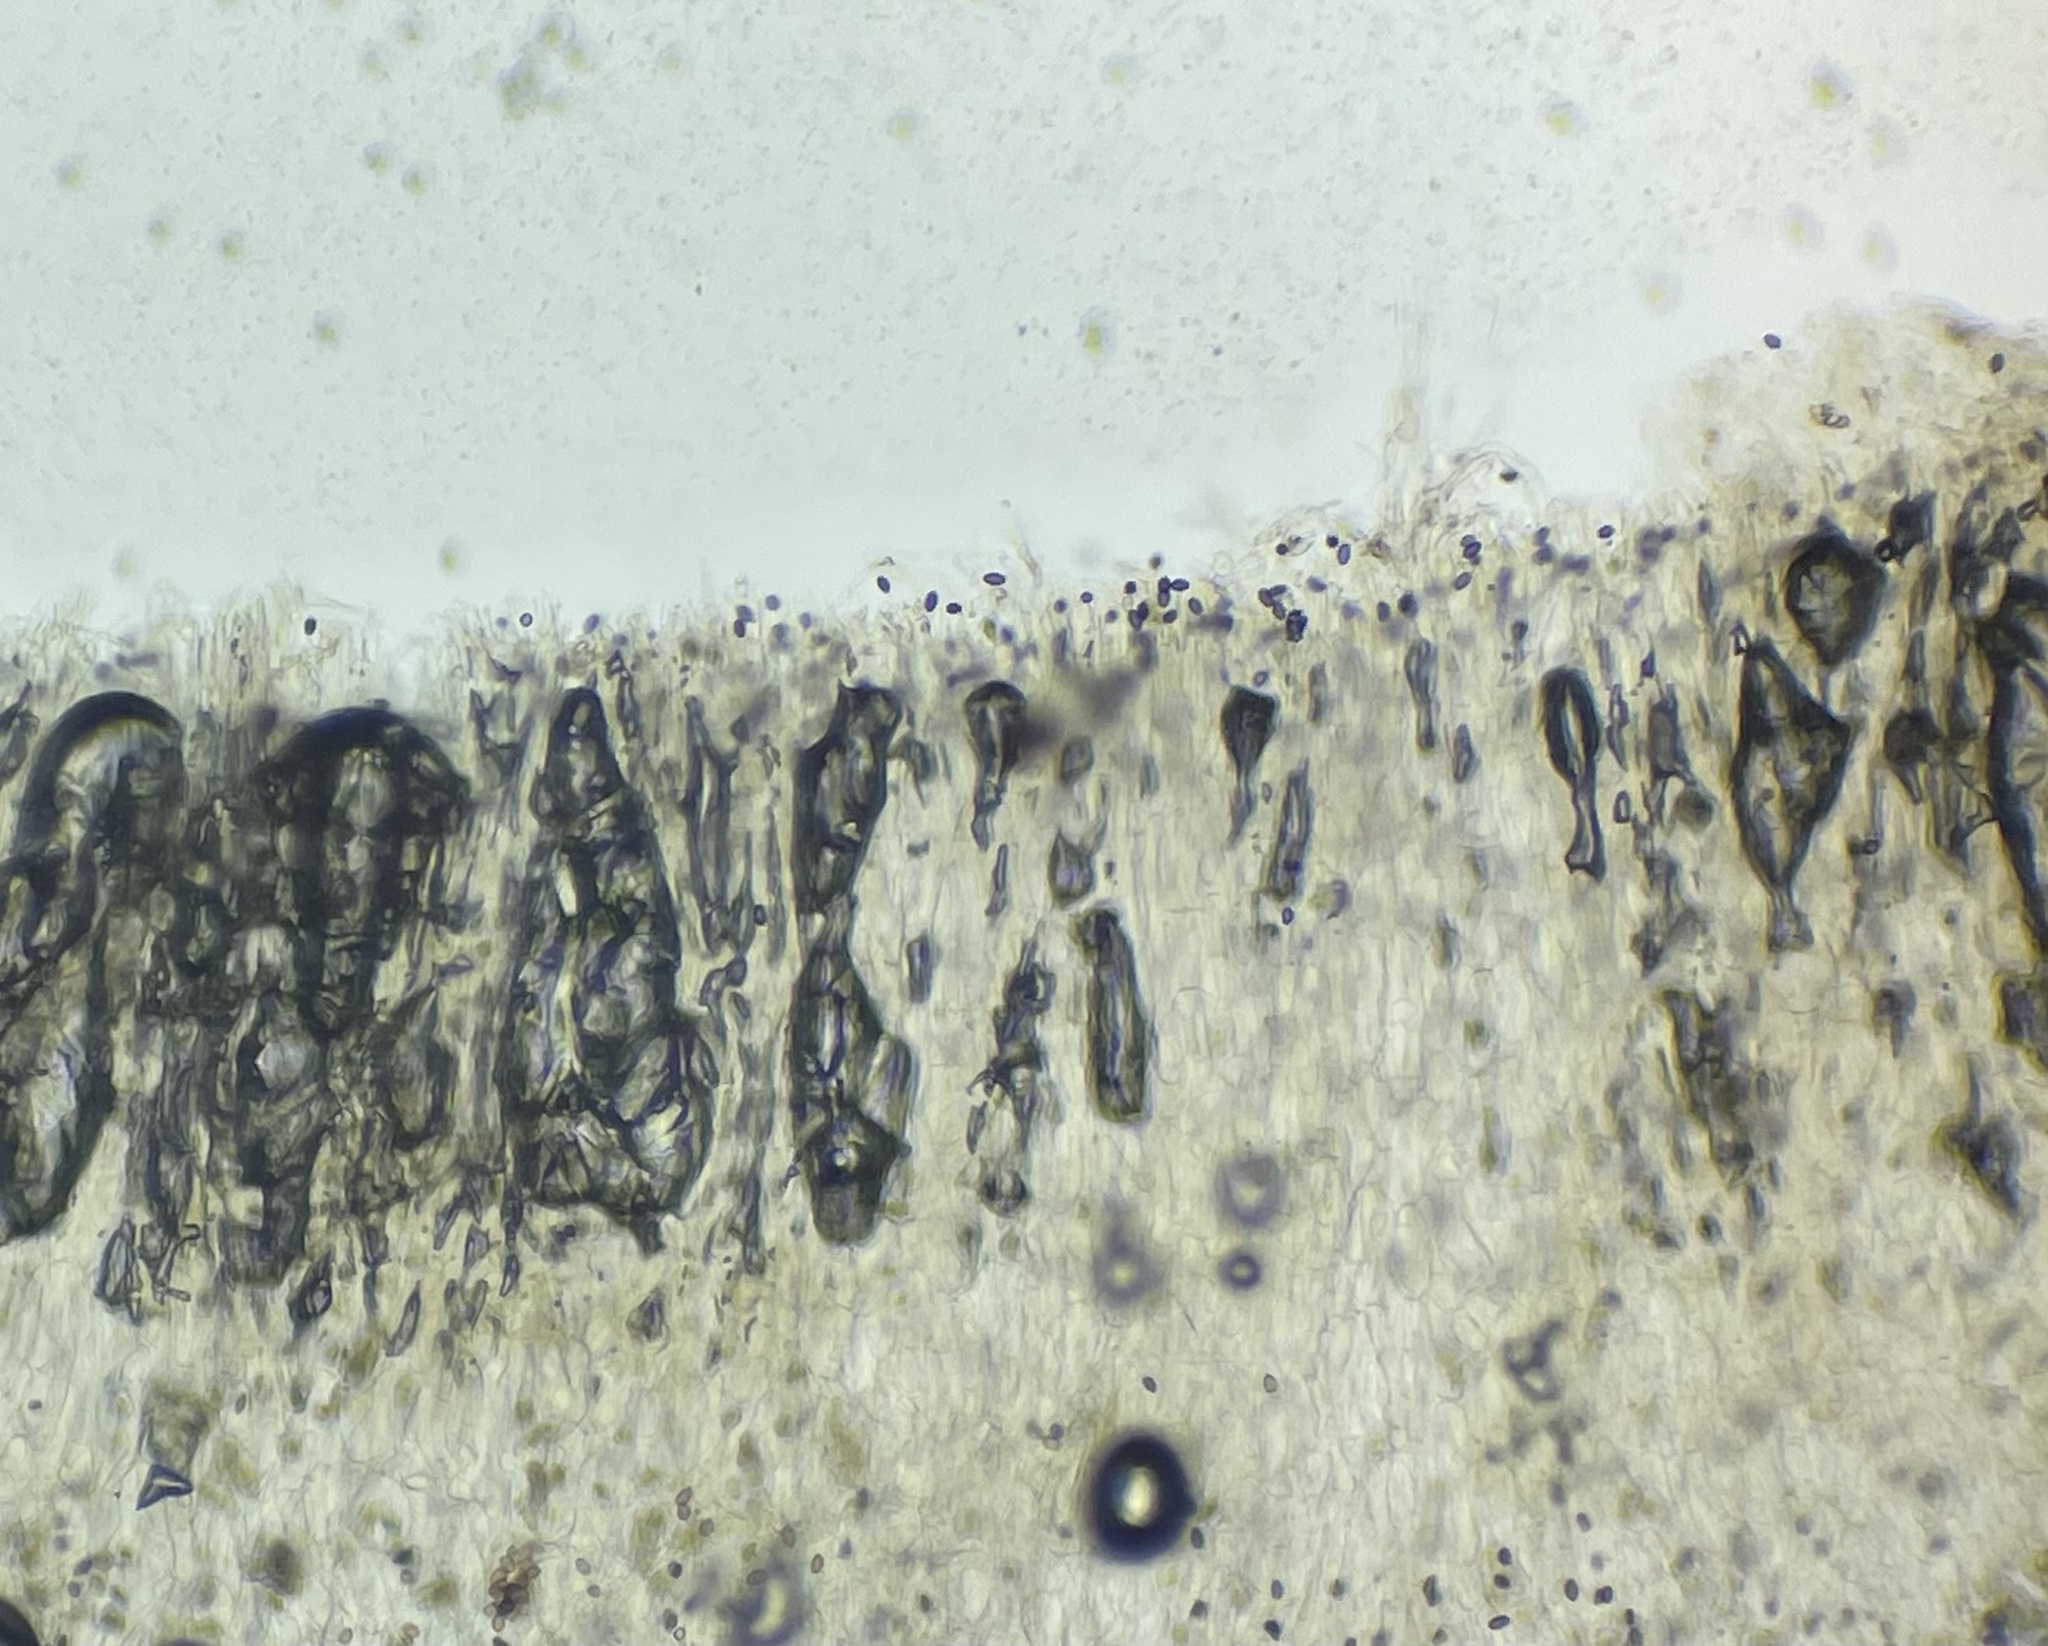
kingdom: Fungi
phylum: Basidiomycota
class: Agaricomycetes
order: Agaricales
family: Psathyrellaceae
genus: Coprinopsis
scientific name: Coprinopsis romagnesiana
